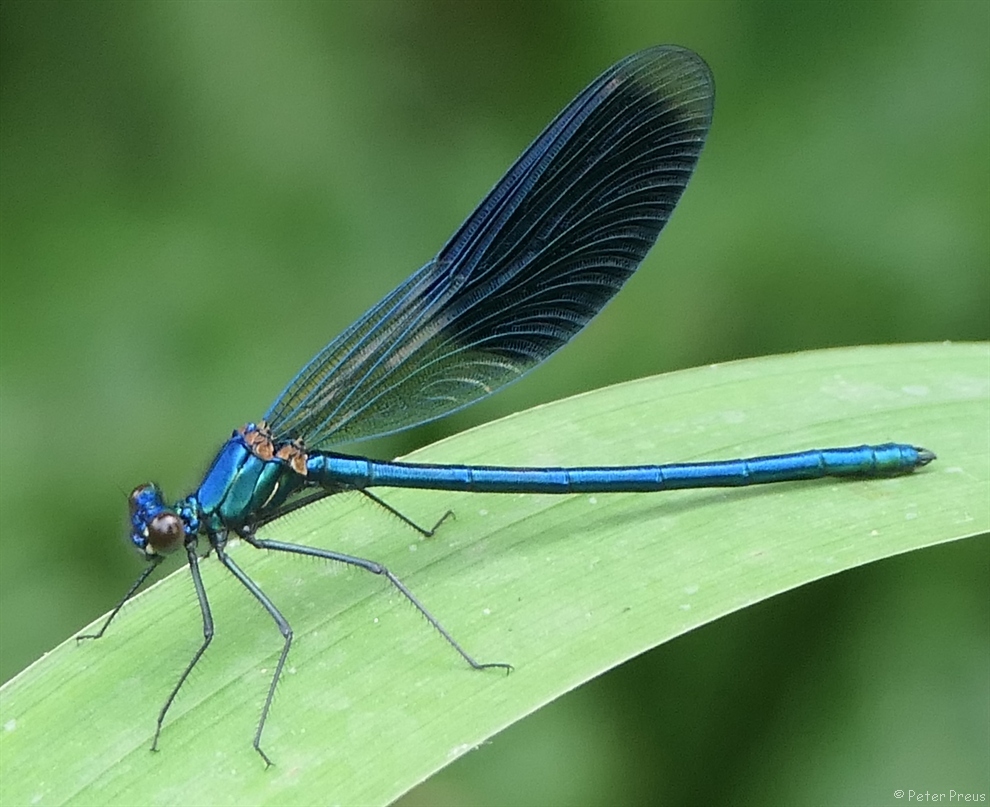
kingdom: Animalia
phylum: Arthropoda
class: Insecta
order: Odonata
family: Calopterygidae
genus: Calopteryx
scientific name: Calopteryx splendens
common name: Banded demoiselle
